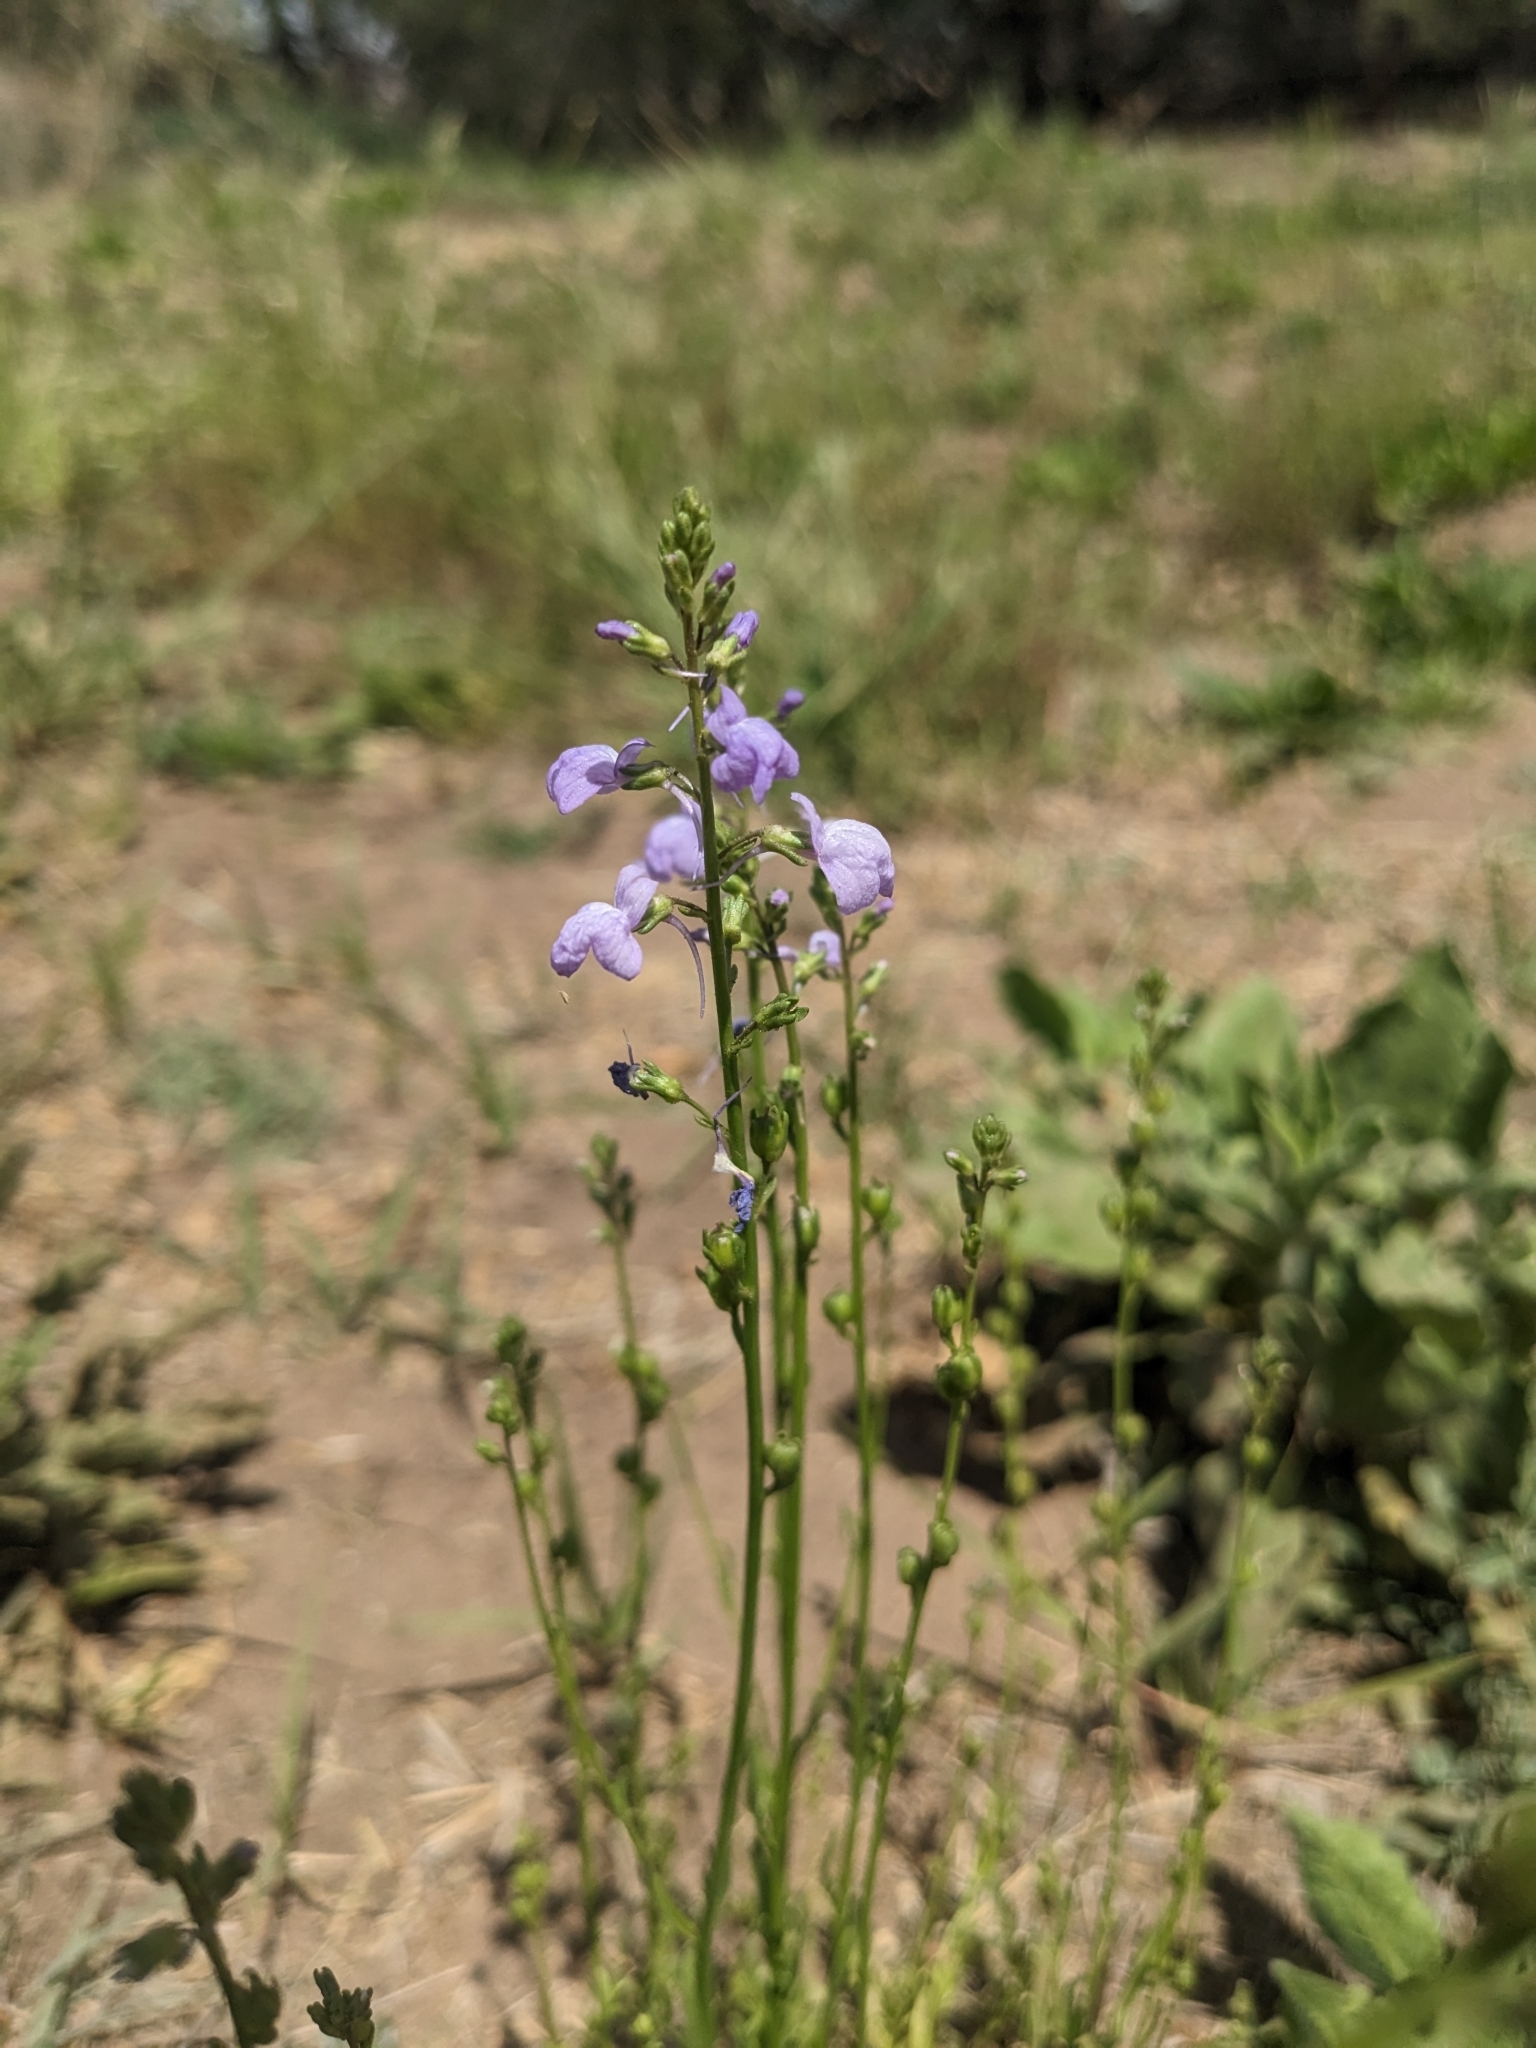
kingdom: Plantae
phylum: Tracheophyta
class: Magnoliopsida
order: Lamiales
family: Plantaginaceae
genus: Nuttallanthus
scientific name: Nuttallanthus texanus
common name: Texas toadflax
